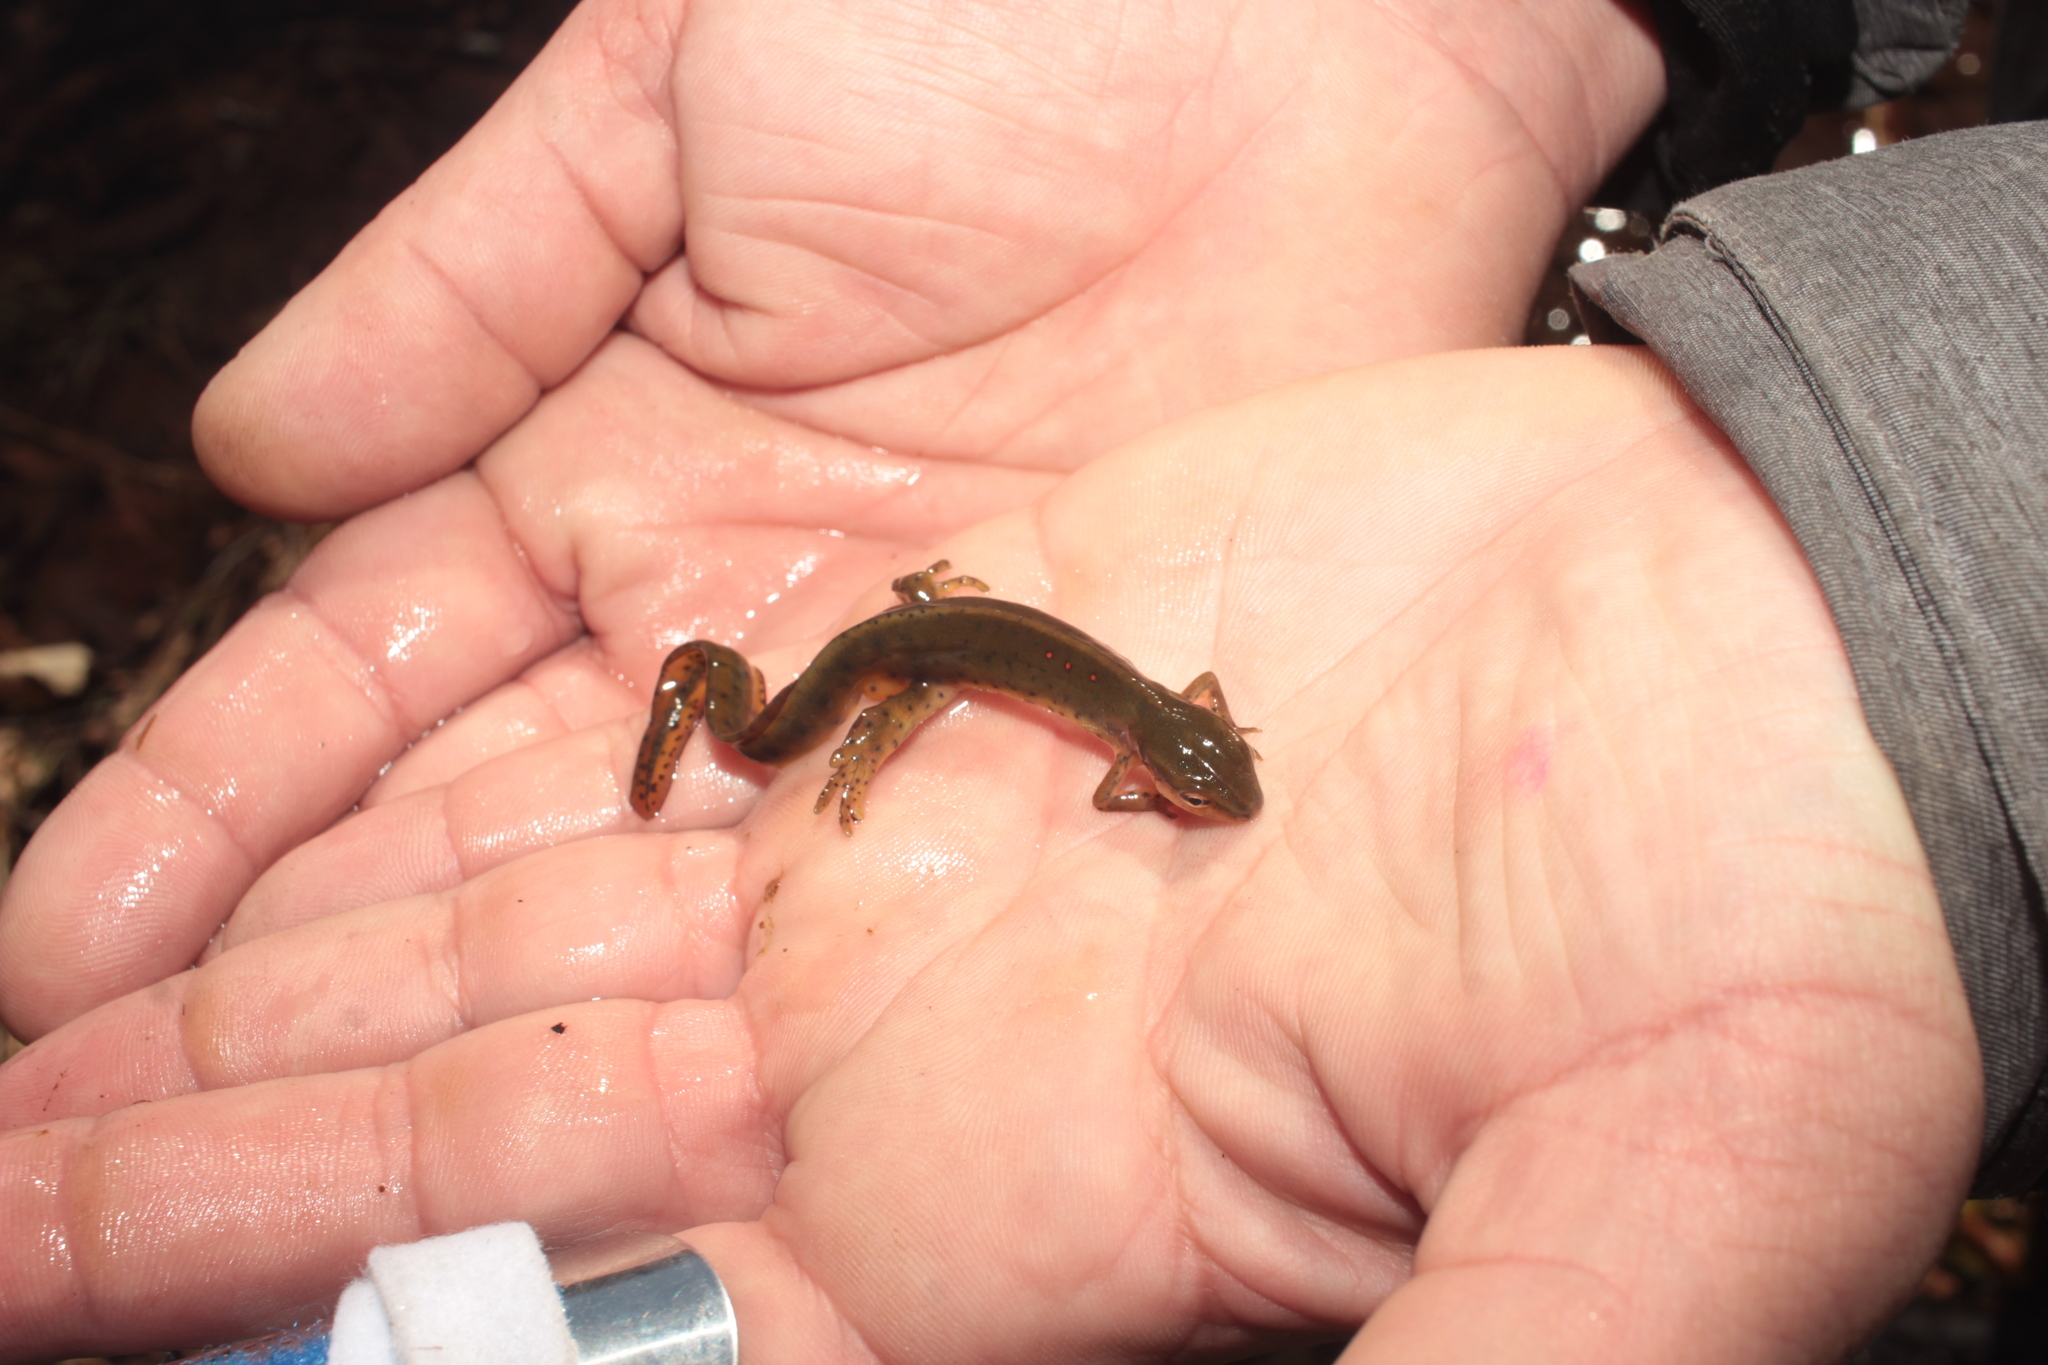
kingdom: Animalia
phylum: Chordata
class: Amphibia
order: Caudata
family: Salamandridae
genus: Notophthalmus
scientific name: Notophthalmus viridescens
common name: Eastern newt
